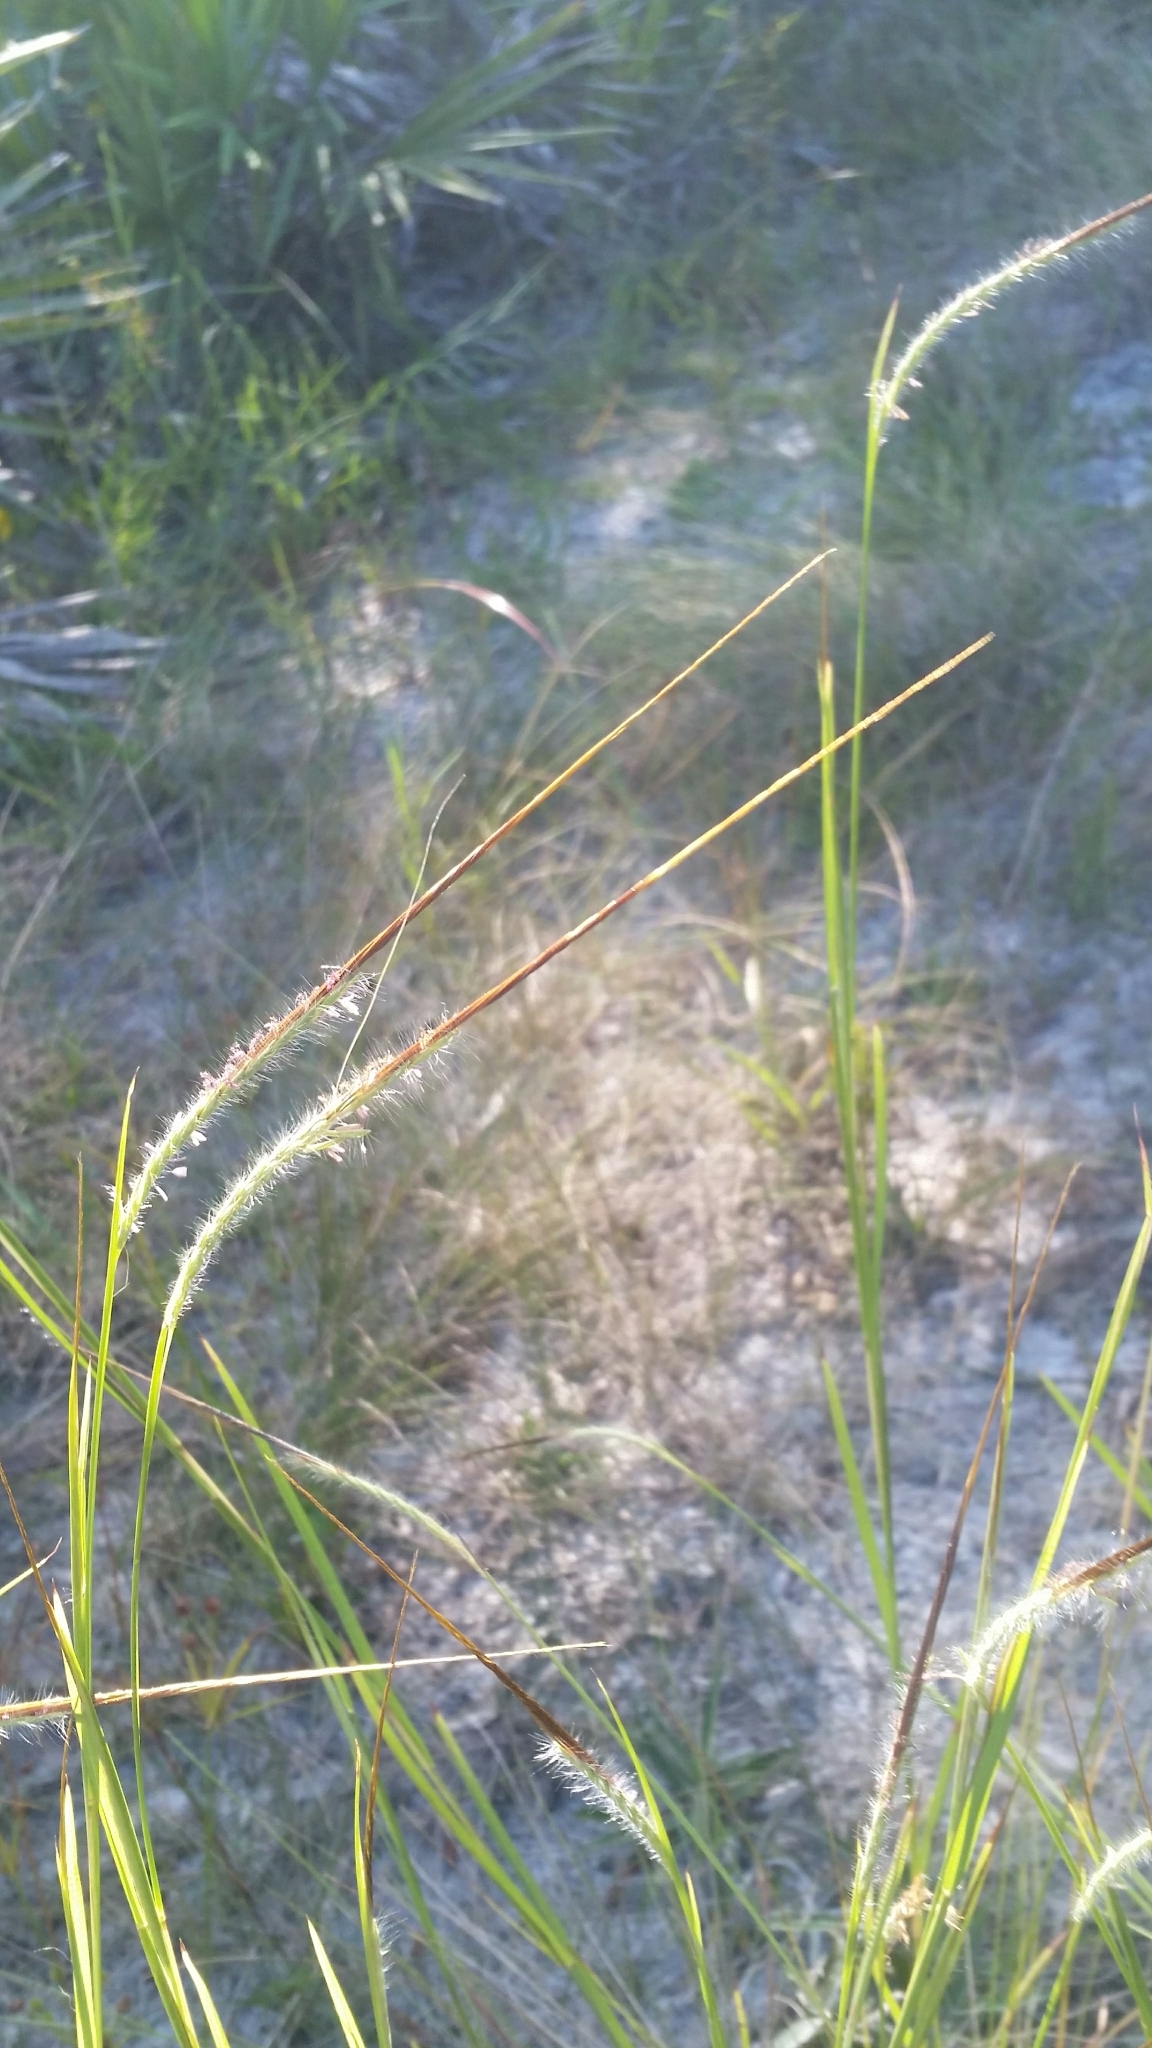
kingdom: Plantae
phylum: Tracheophyta
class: Liliopsida
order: Poales
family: Poaceae
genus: Heteropogon
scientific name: Heteropogon contortus
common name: Tanglehead
